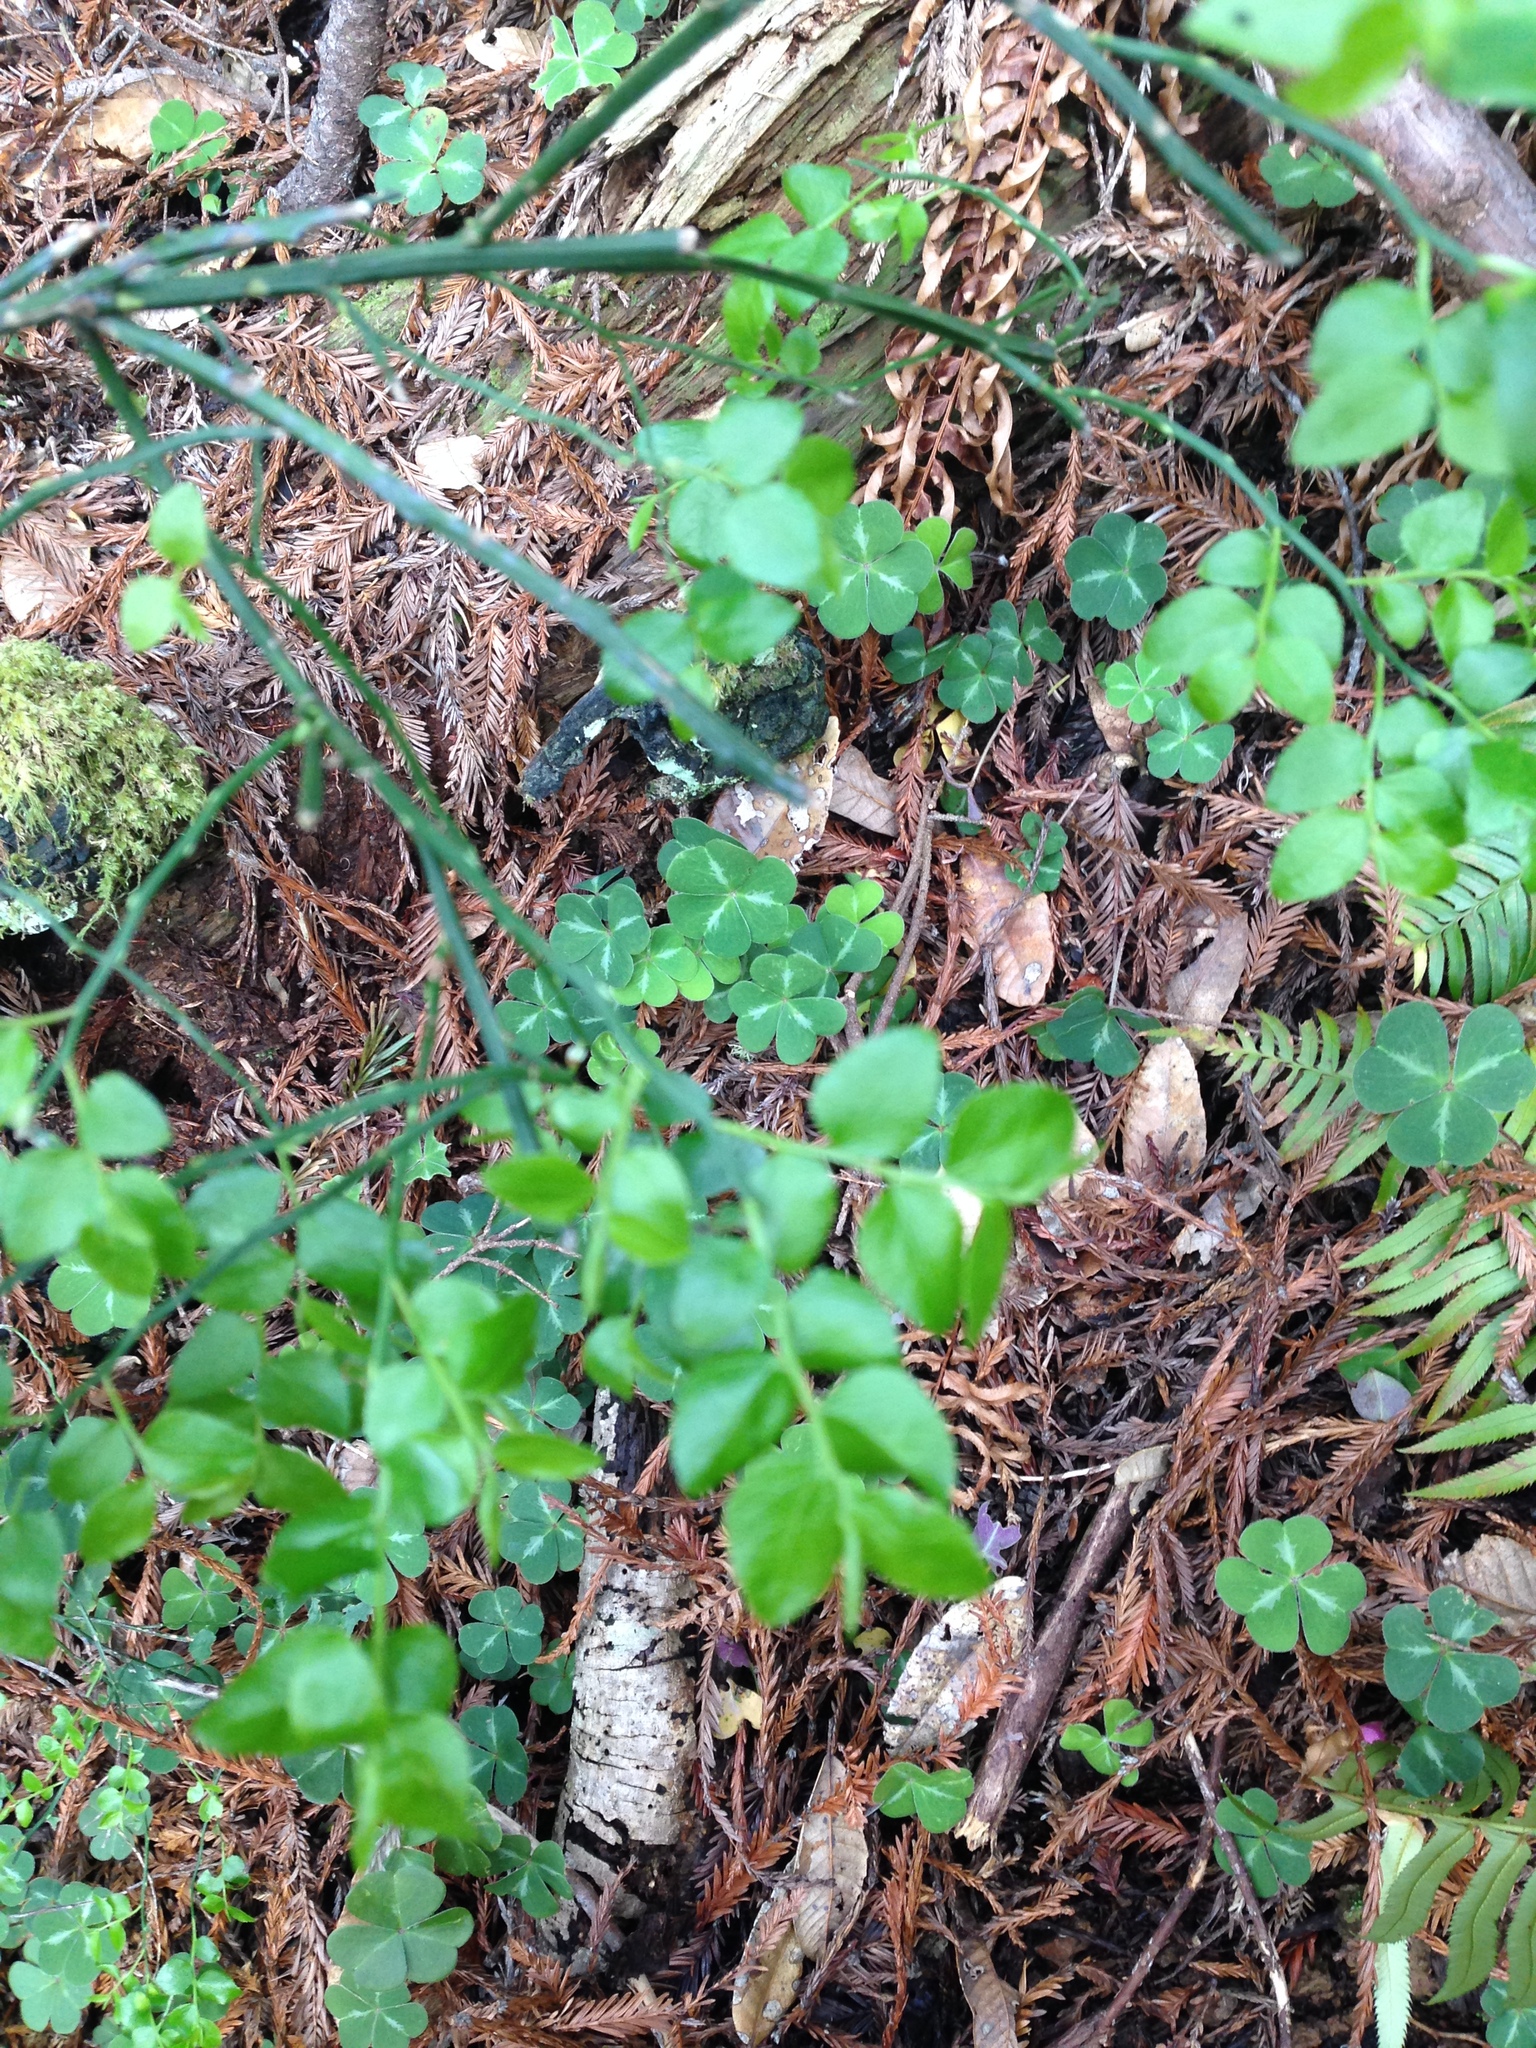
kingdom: Plantae
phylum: Tracheophyta
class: Magnoliopsida
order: Ericales
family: Ericaceae
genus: Vaccinium
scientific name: Vaccinium parvifolium
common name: Red-huckleberry
